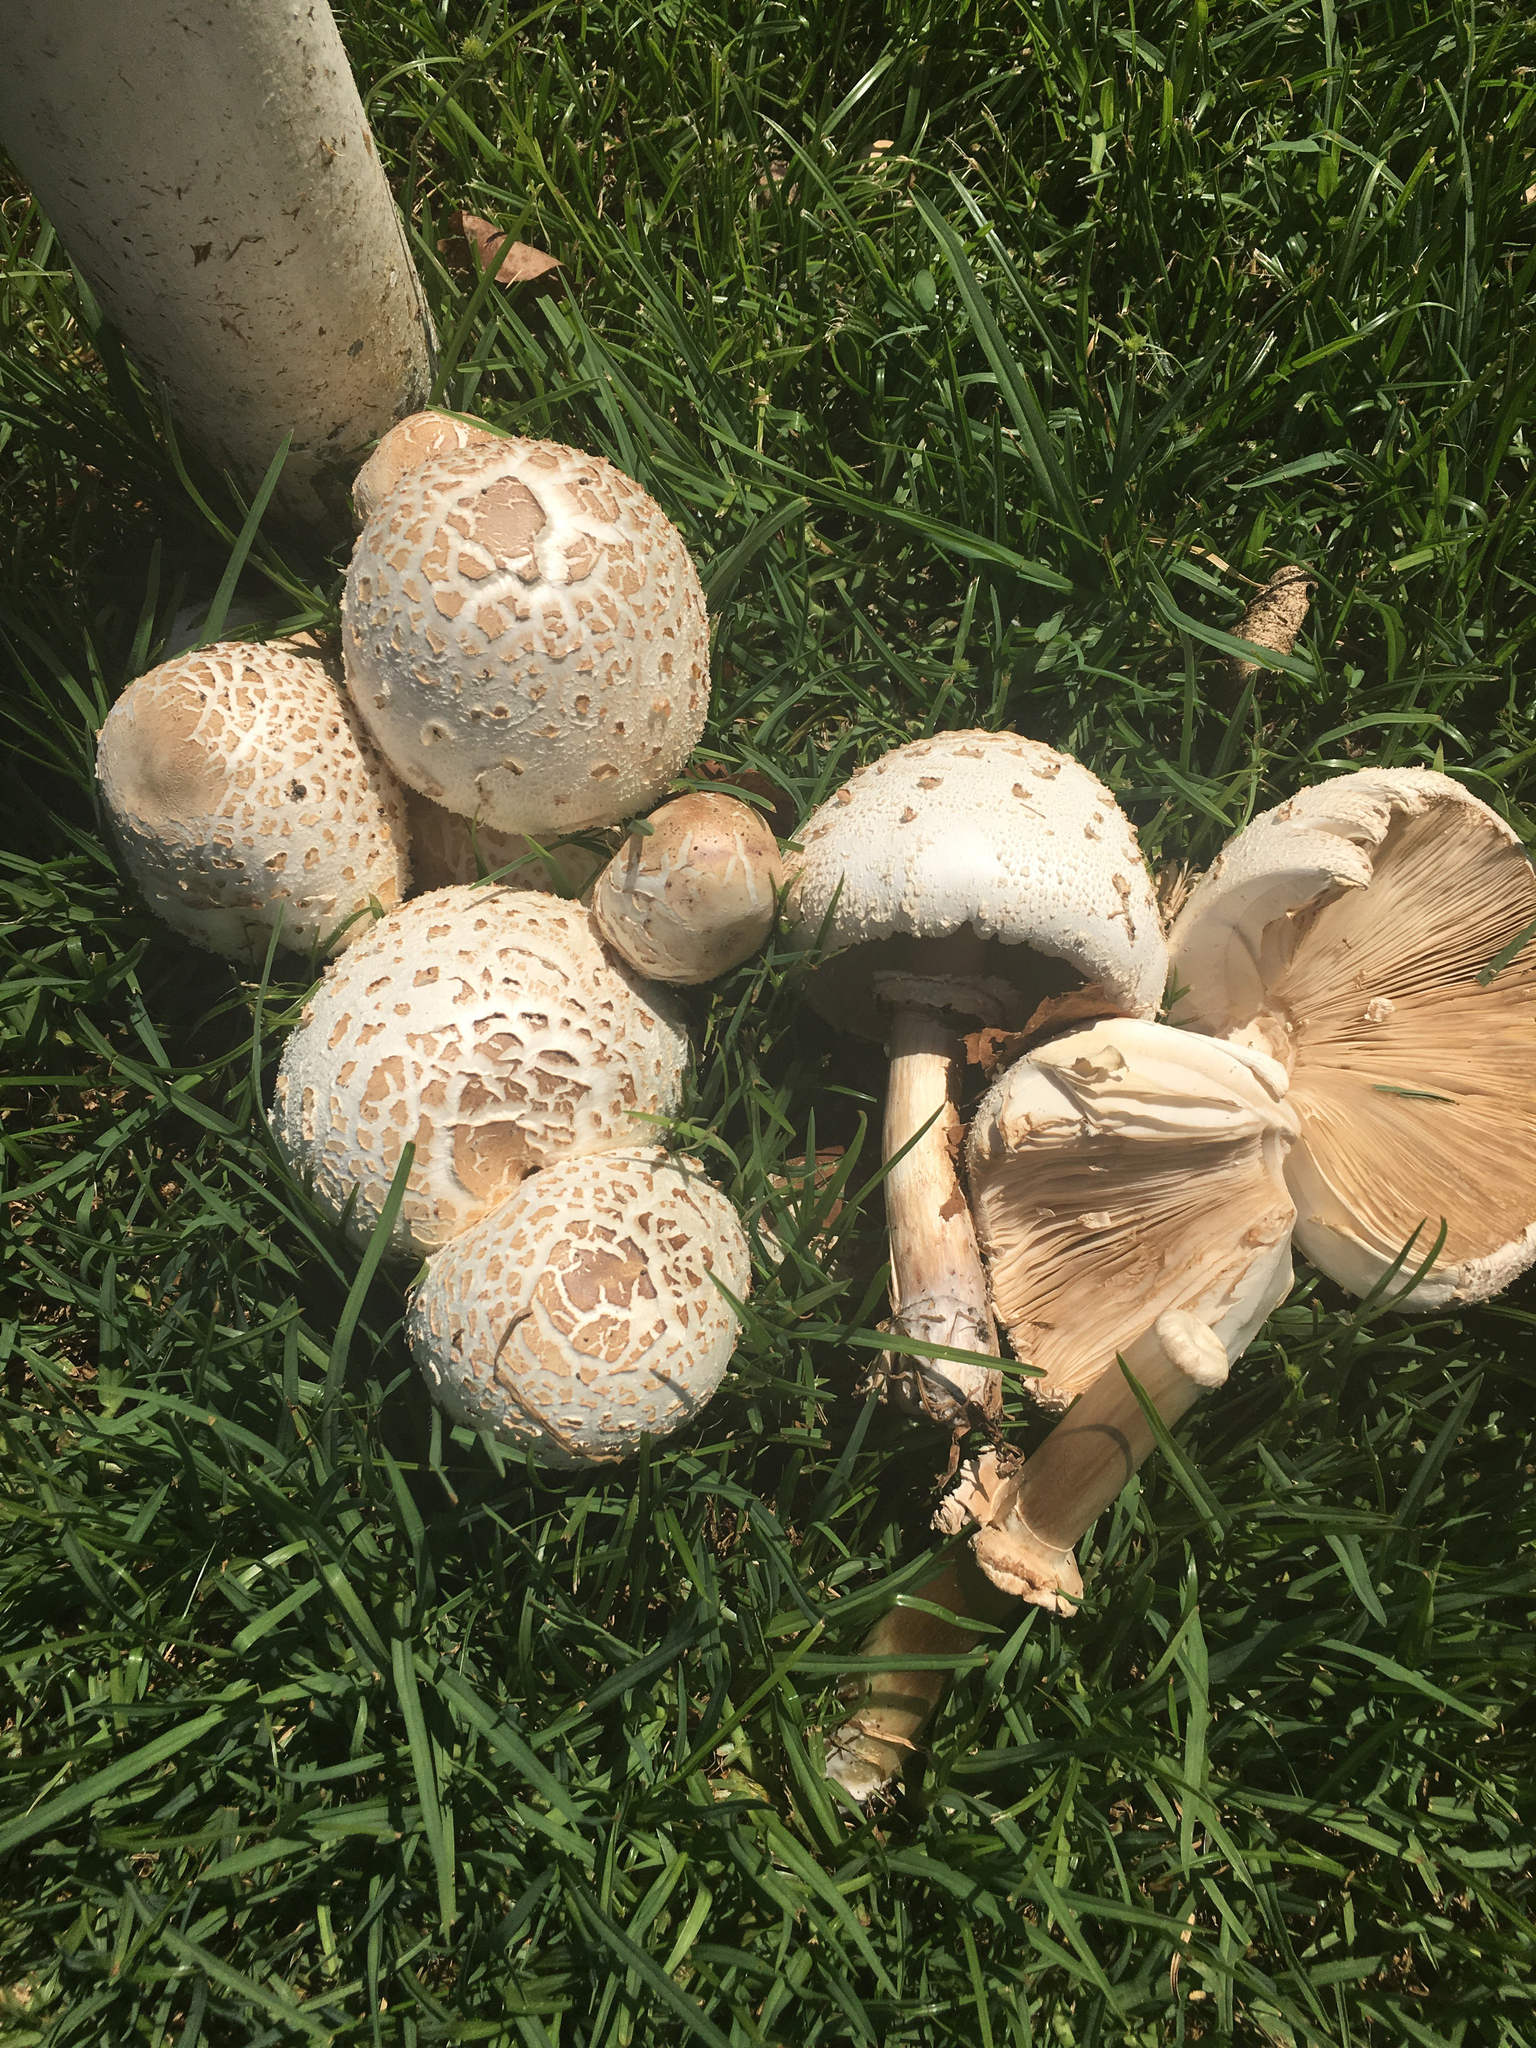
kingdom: Fungi
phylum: Basidiomycota
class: Agaricomycetes
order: Agaricales
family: Agaricaceae
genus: Chlorophyllum
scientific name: Chlorophyllum molybdites
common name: False parasol
